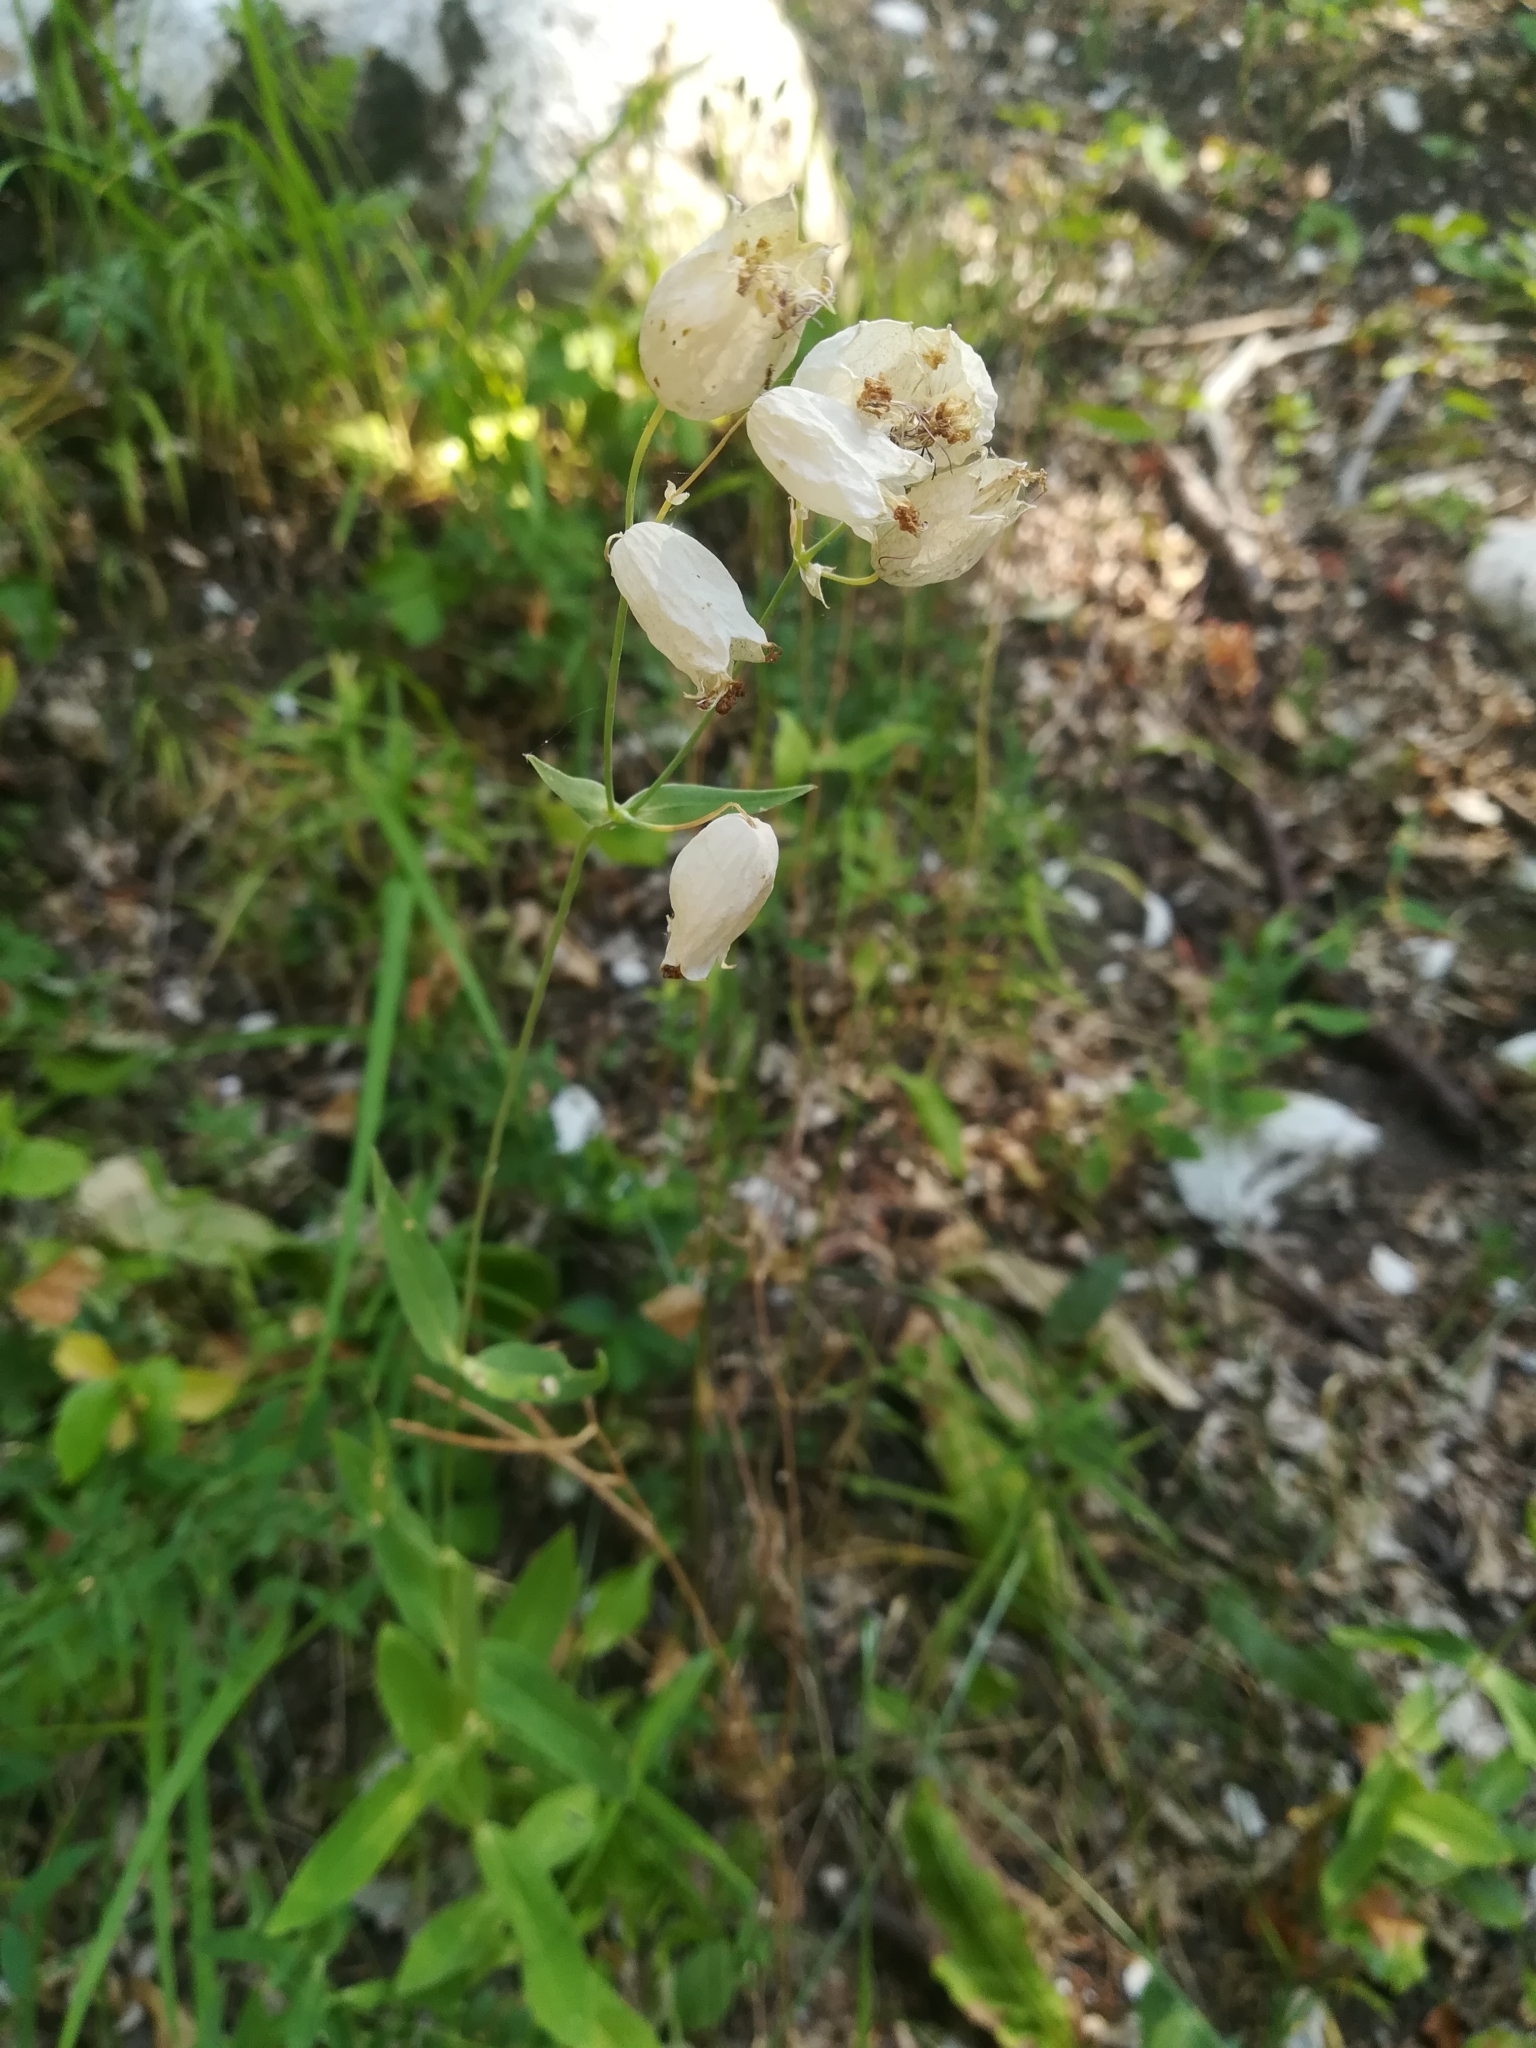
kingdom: Plantae
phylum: Tracheophyta
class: Magnoliopsida
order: Caryophyllales
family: Caryophyllaceae
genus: Silene
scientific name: Silene vulgaris
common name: Bladder campion
